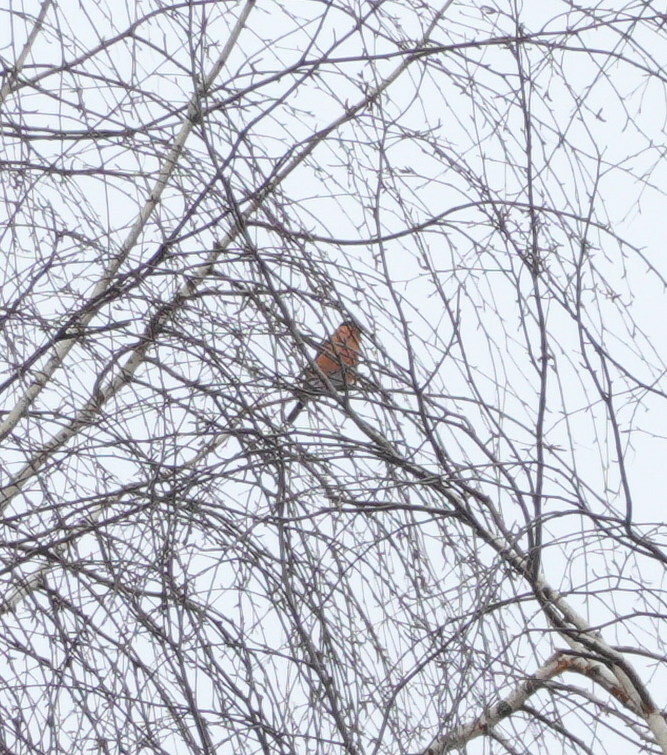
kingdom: Animalia
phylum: Chordata
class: Aves
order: Passeriformes
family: Fringillidae
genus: Pyrrhula
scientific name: Pyrrhula pyrrhula
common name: Eurasian bullfinch
